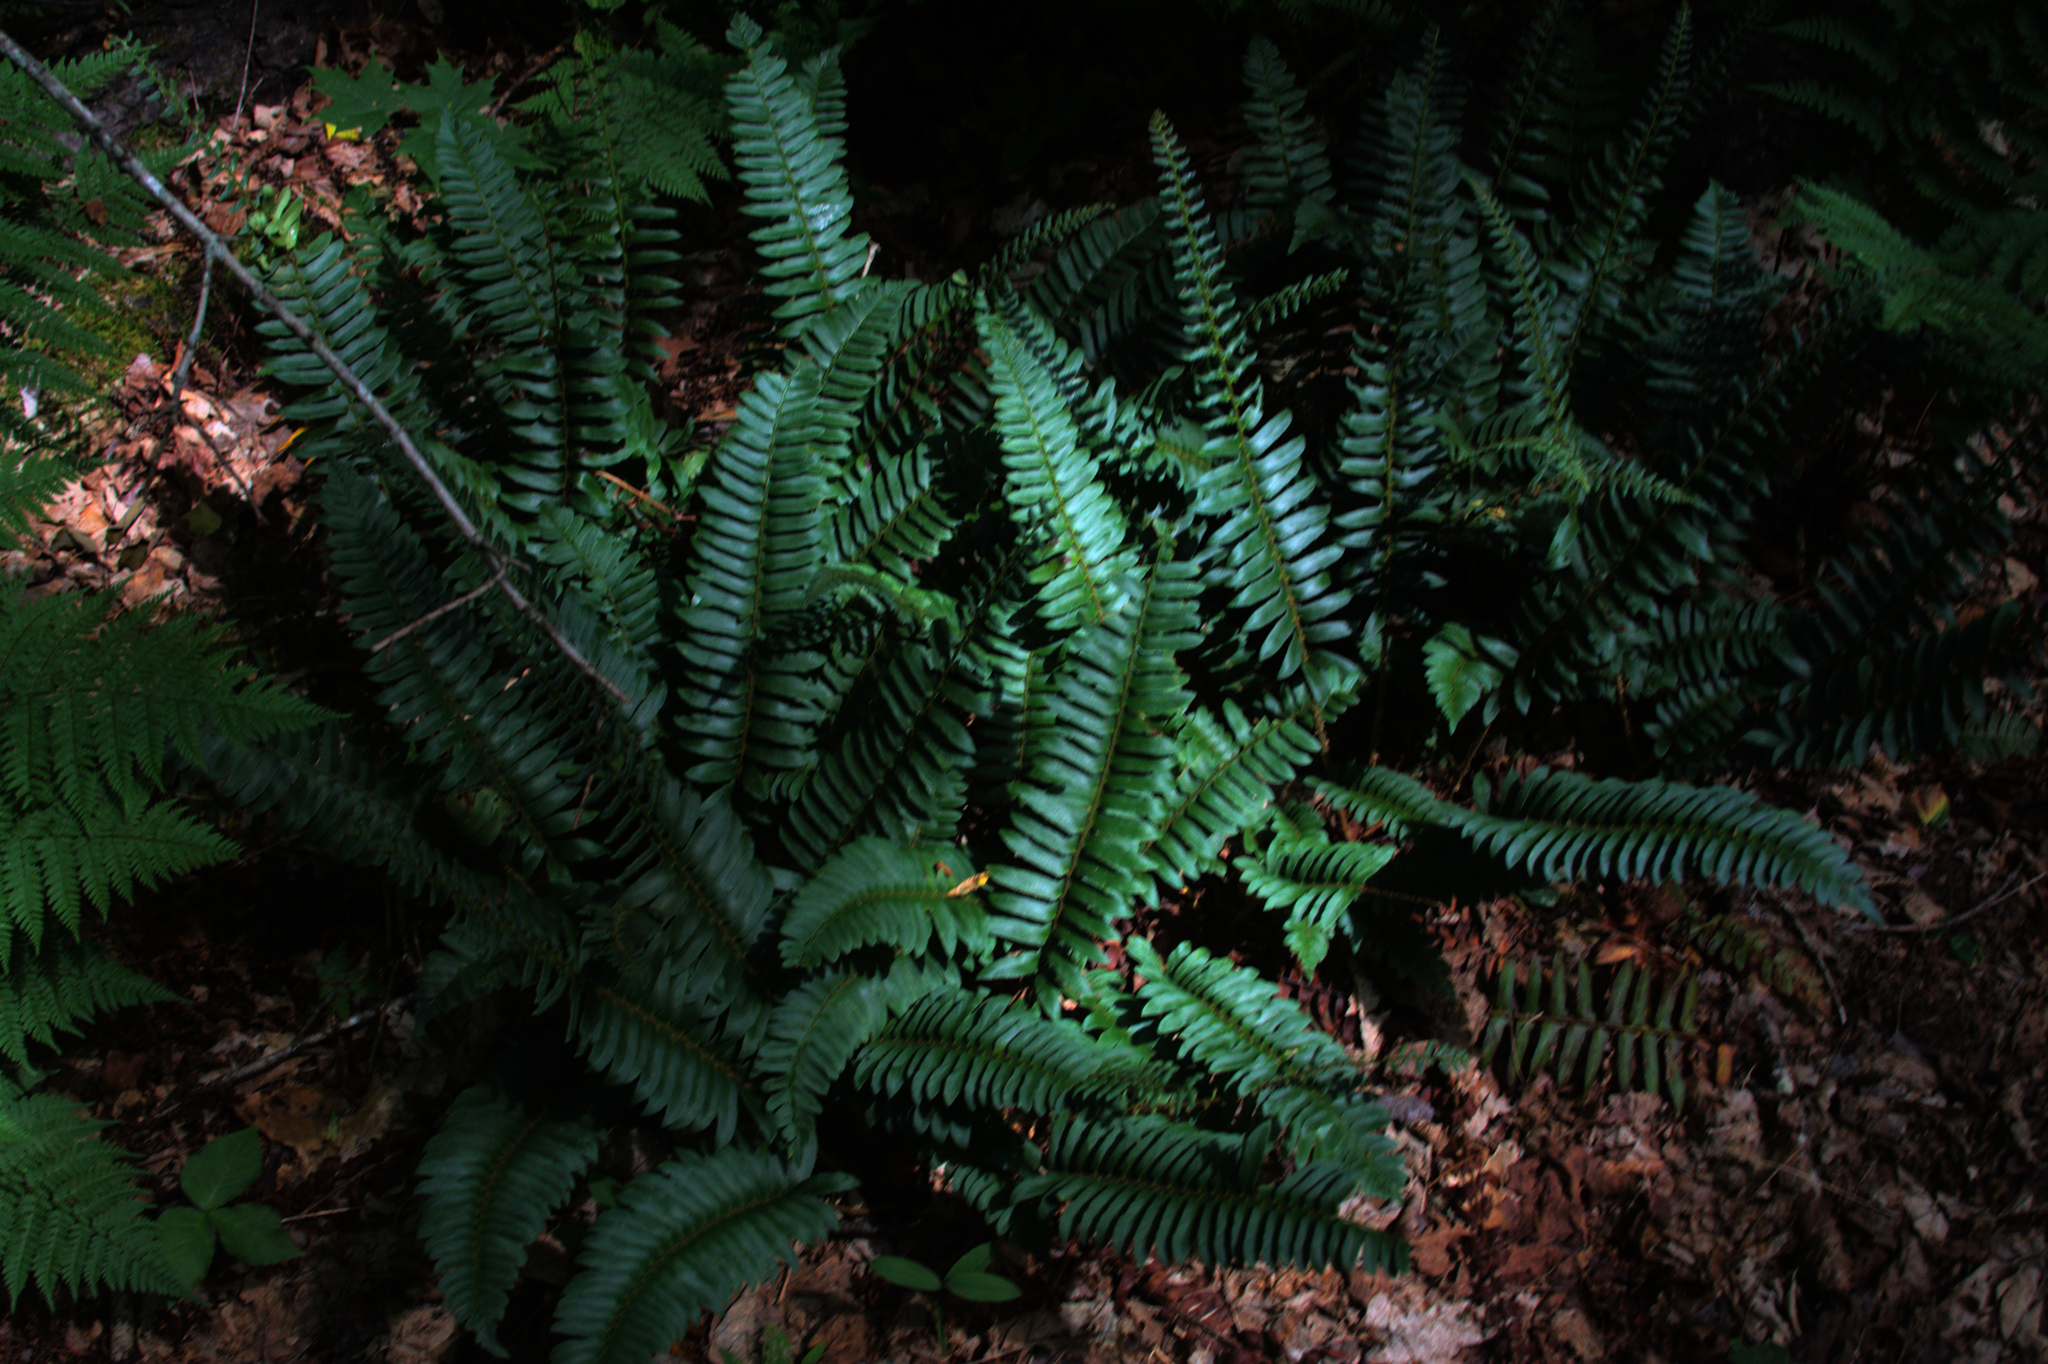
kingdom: Plantae
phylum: Tracheophyta
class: Polypodiopsida
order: Polypodiales
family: Dryopteridaceae
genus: Polystichum
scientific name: Polystichum acrostichoides
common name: Christmas fern
